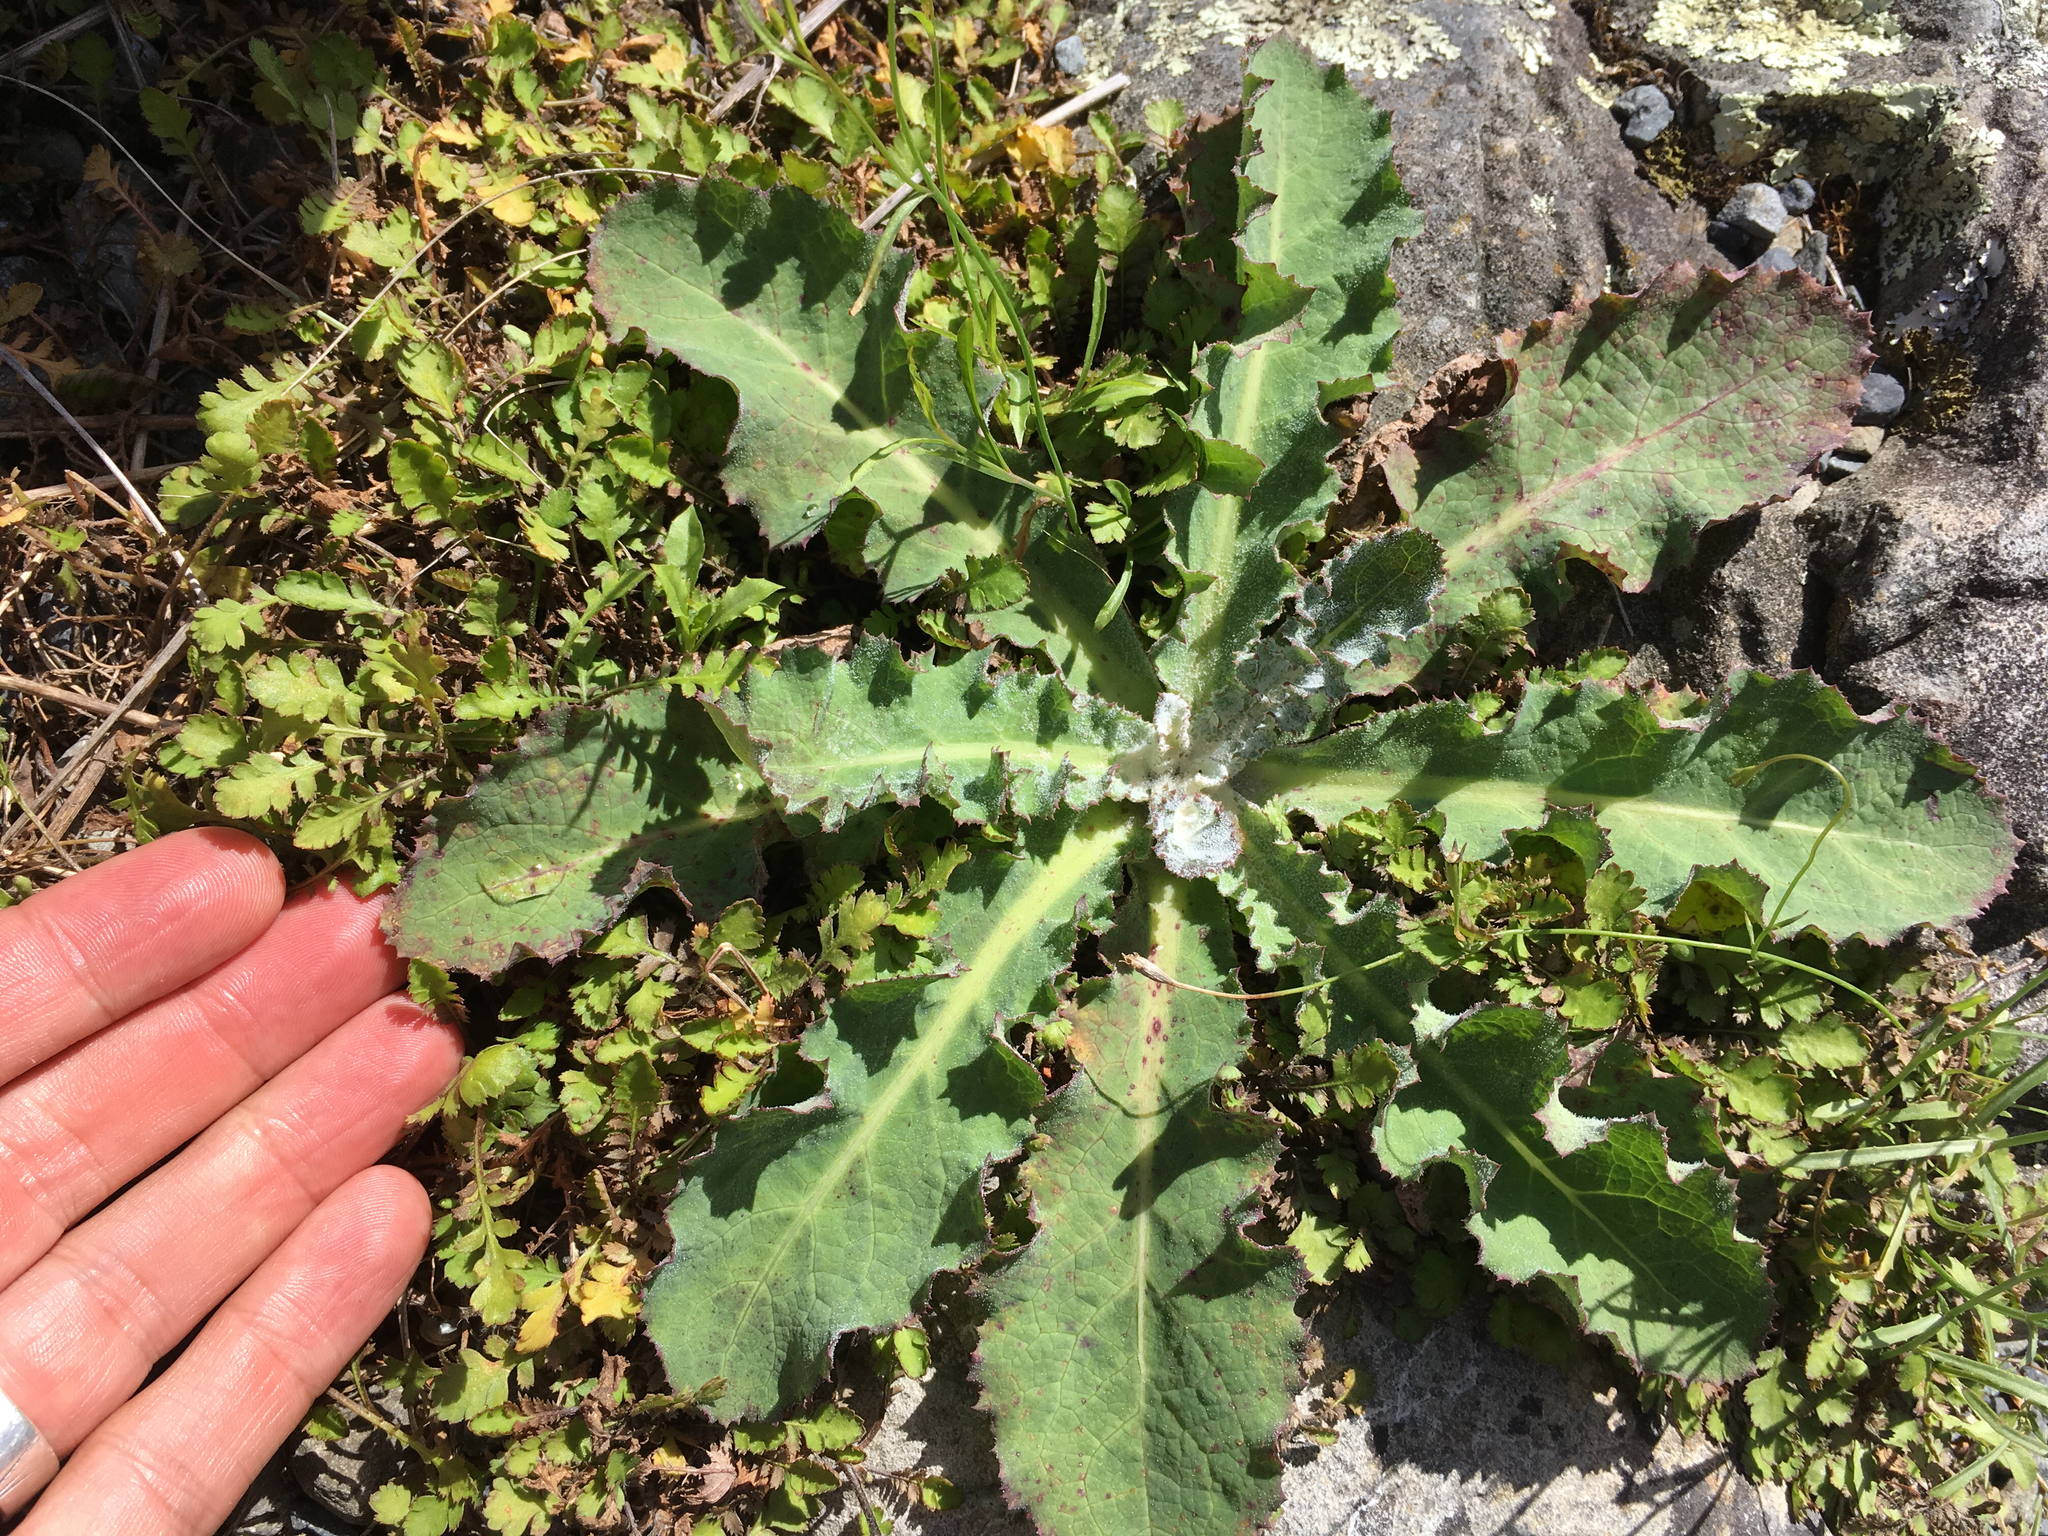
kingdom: Plantae
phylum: Tracheophyta
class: Magnoliopsida
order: Asterales
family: Asteraceae
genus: Sonchus
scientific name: Sonchus kirkii
